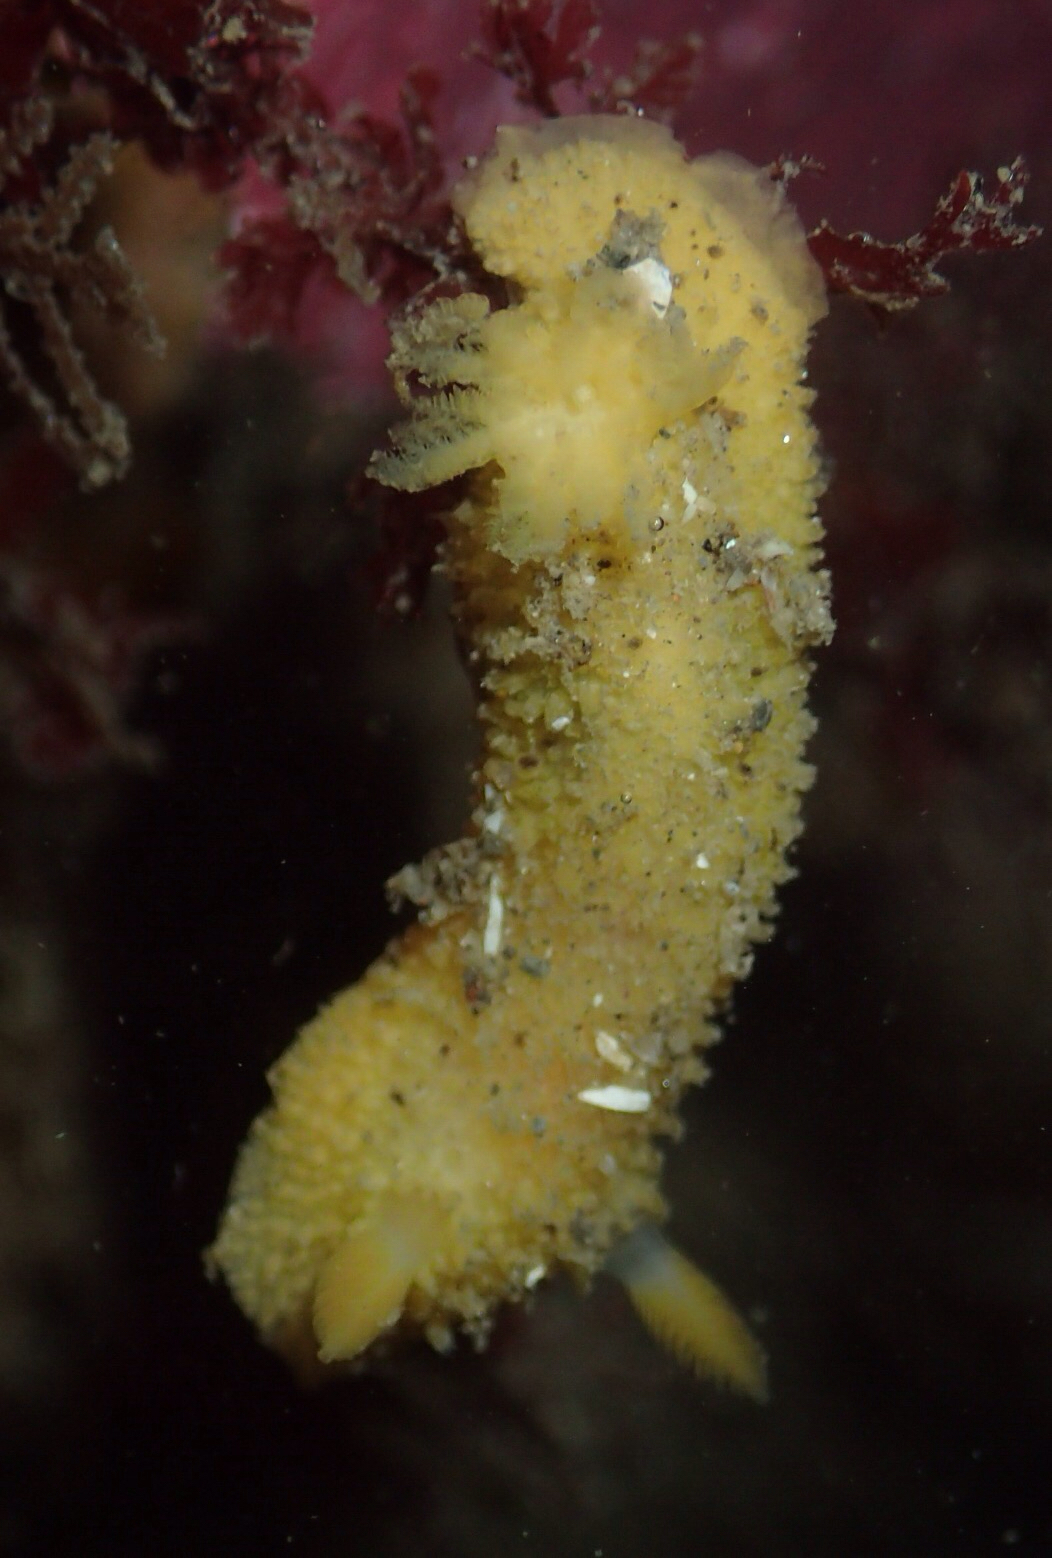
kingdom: Animalia
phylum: Mollusca
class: Gastropoda
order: Nudibranchia
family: Dorididae
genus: Doris
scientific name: Doris montereyensis
